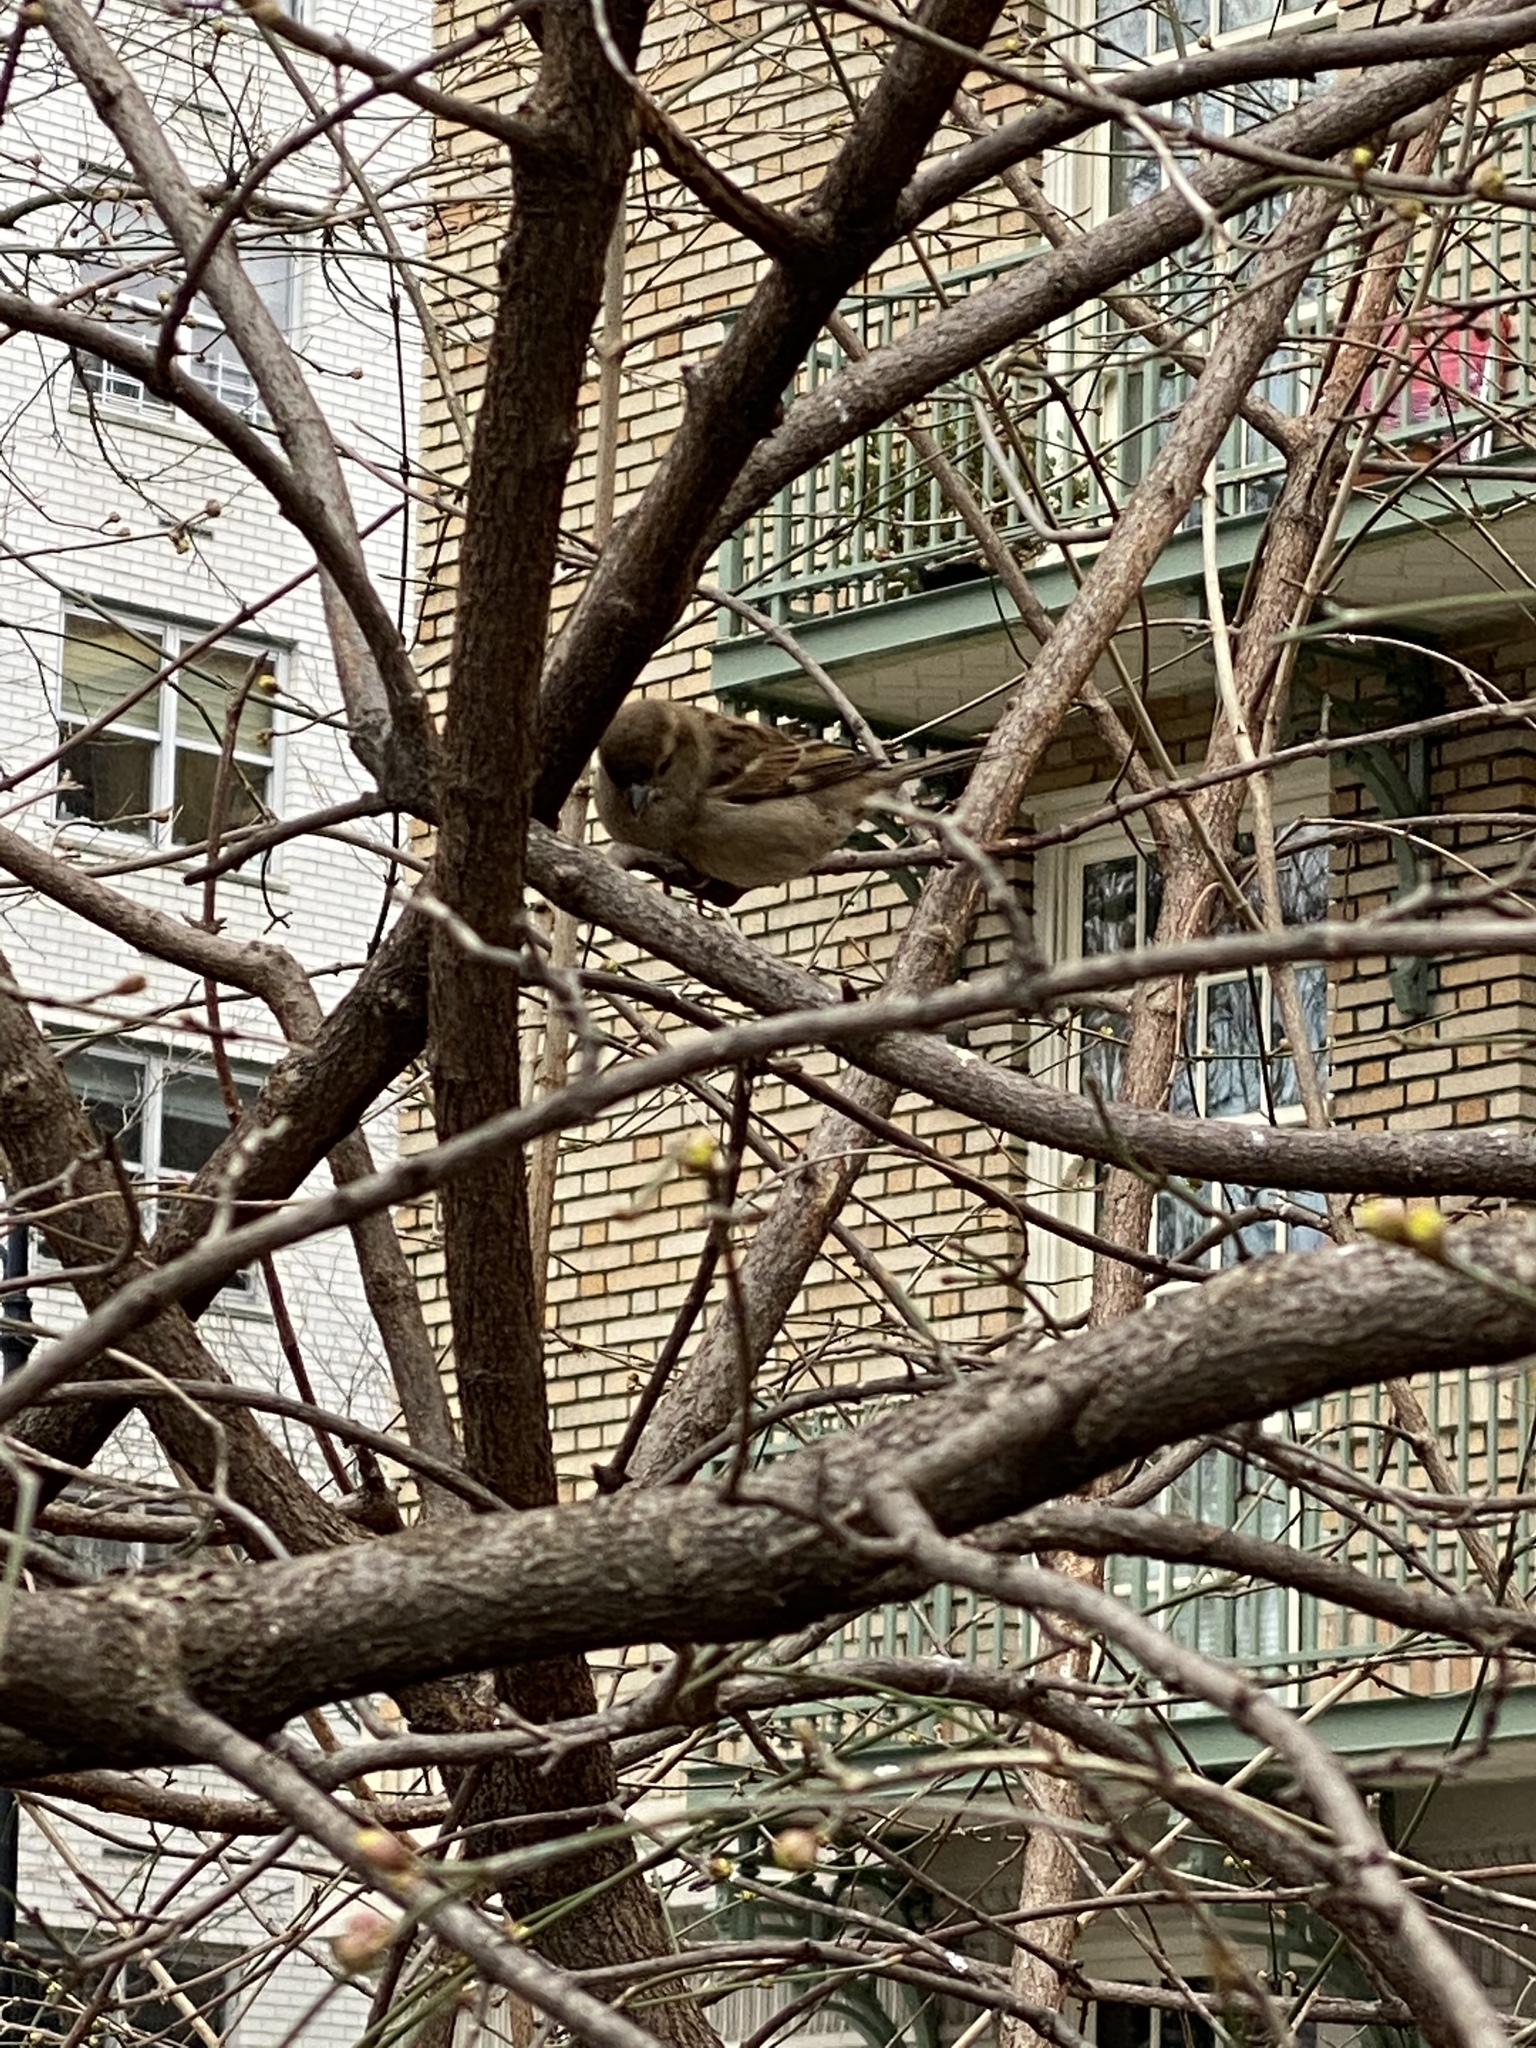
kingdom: Animalia
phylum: Chordata
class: Aves
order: Passeriformes
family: Passeridae
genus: Passer
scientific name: Passer domesticus
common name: House sparrow
